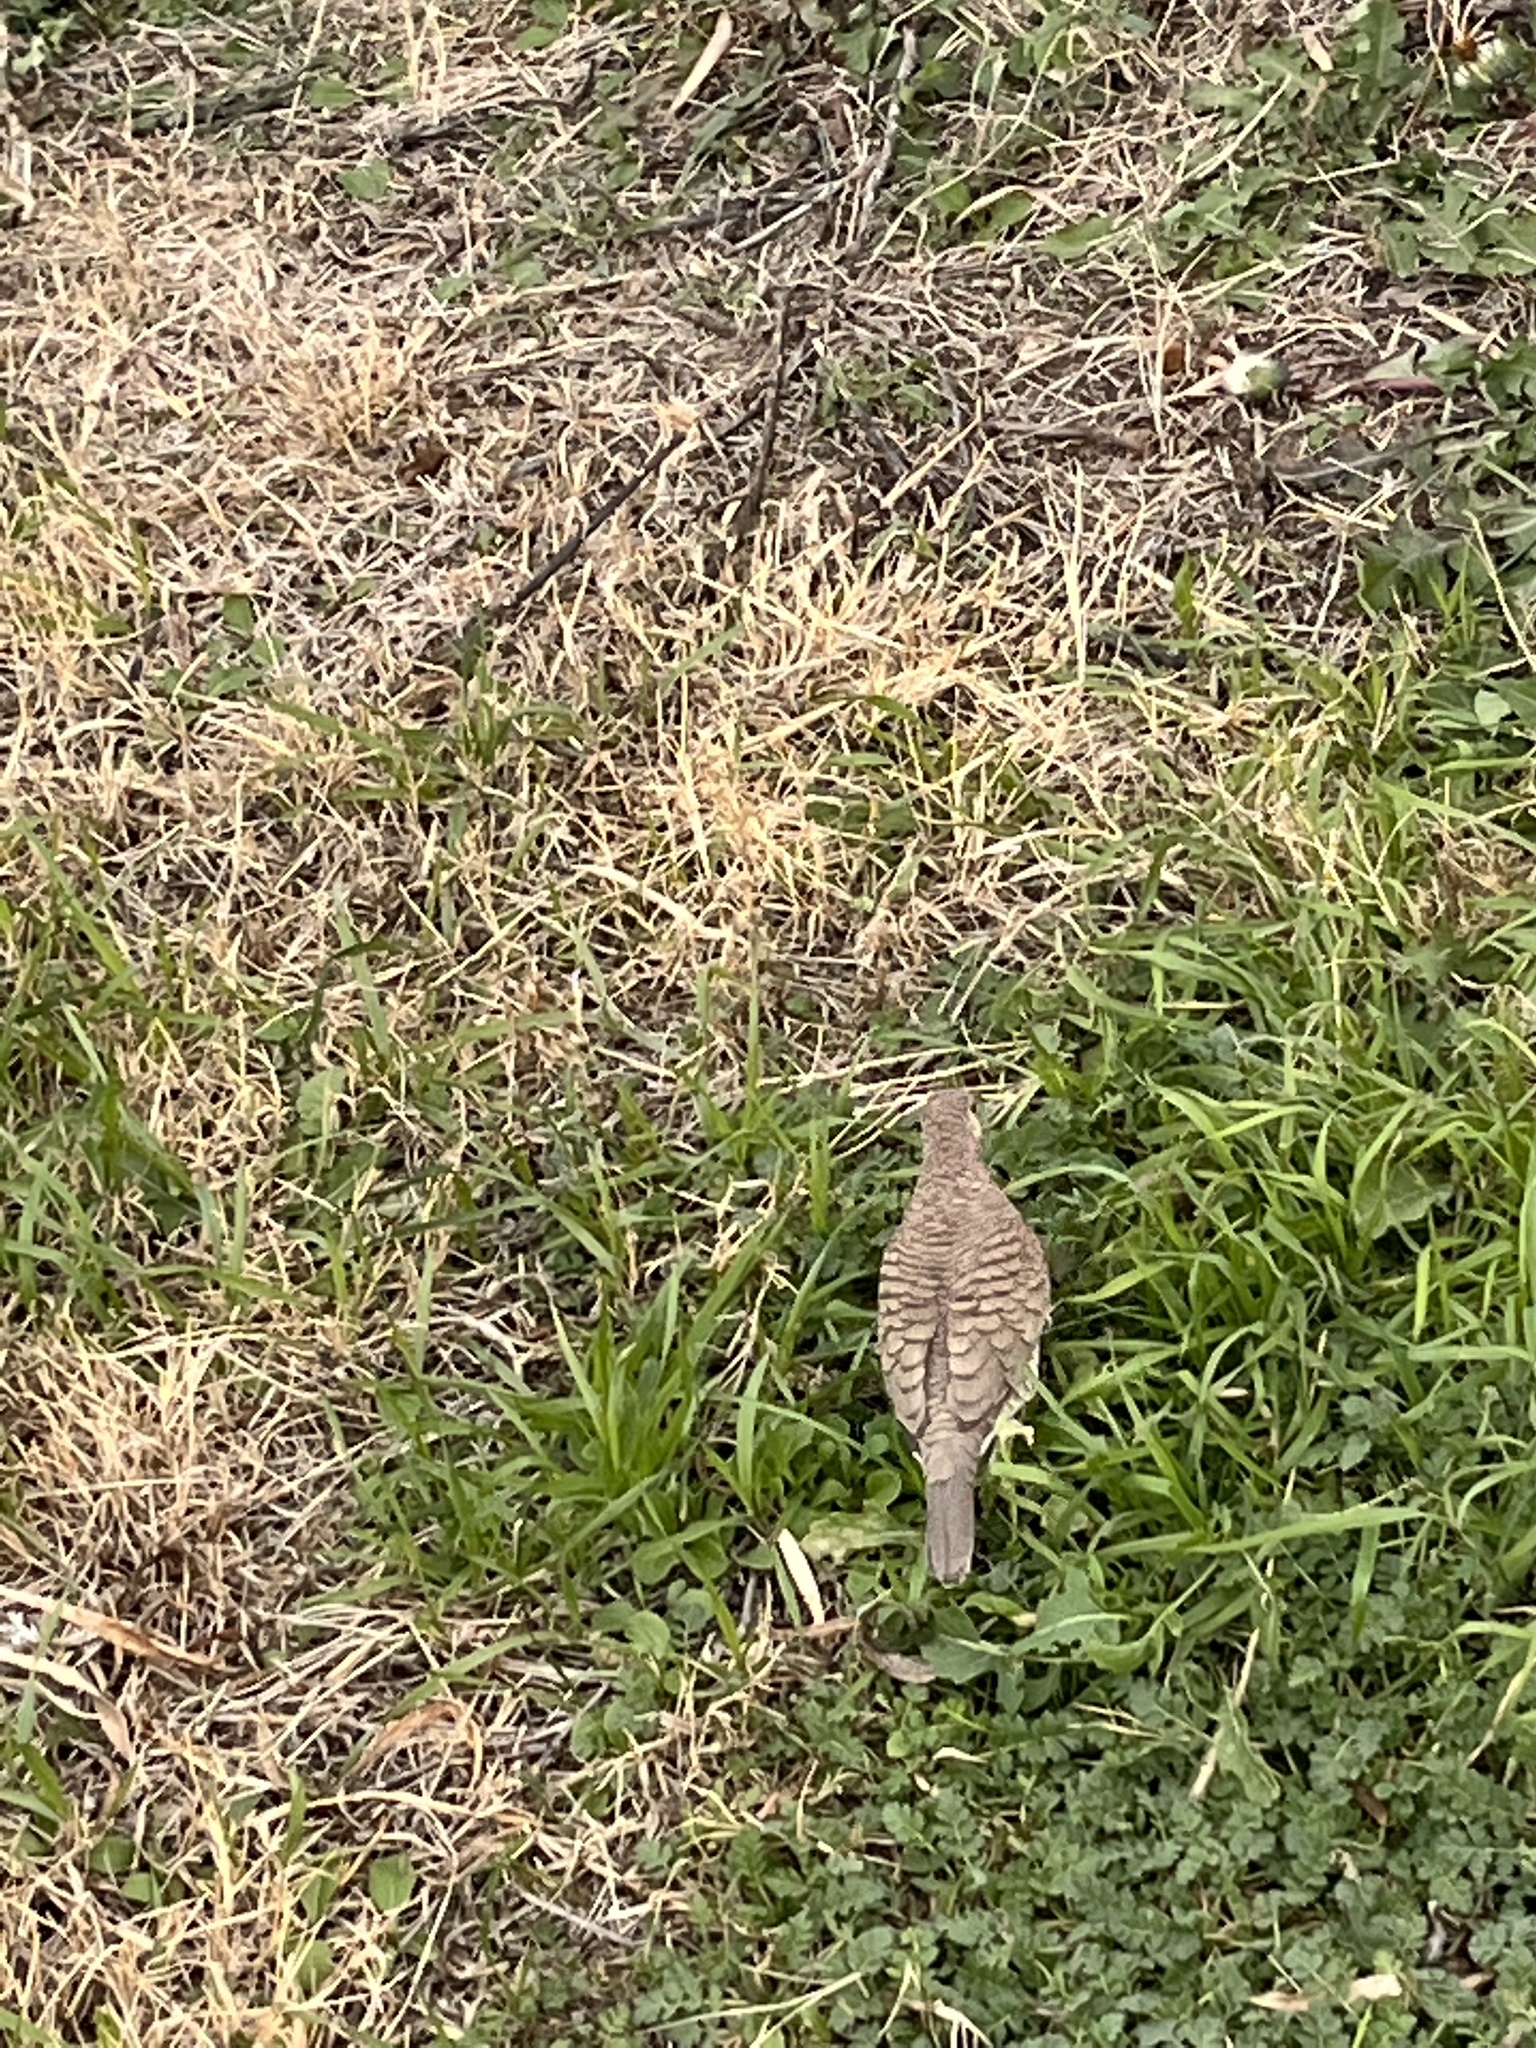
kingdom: Animalia
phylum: Chordata
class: Aves
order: Columbiformes
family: Columbidae
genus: Columbina
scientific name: Columbina inca
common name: Inca dove
